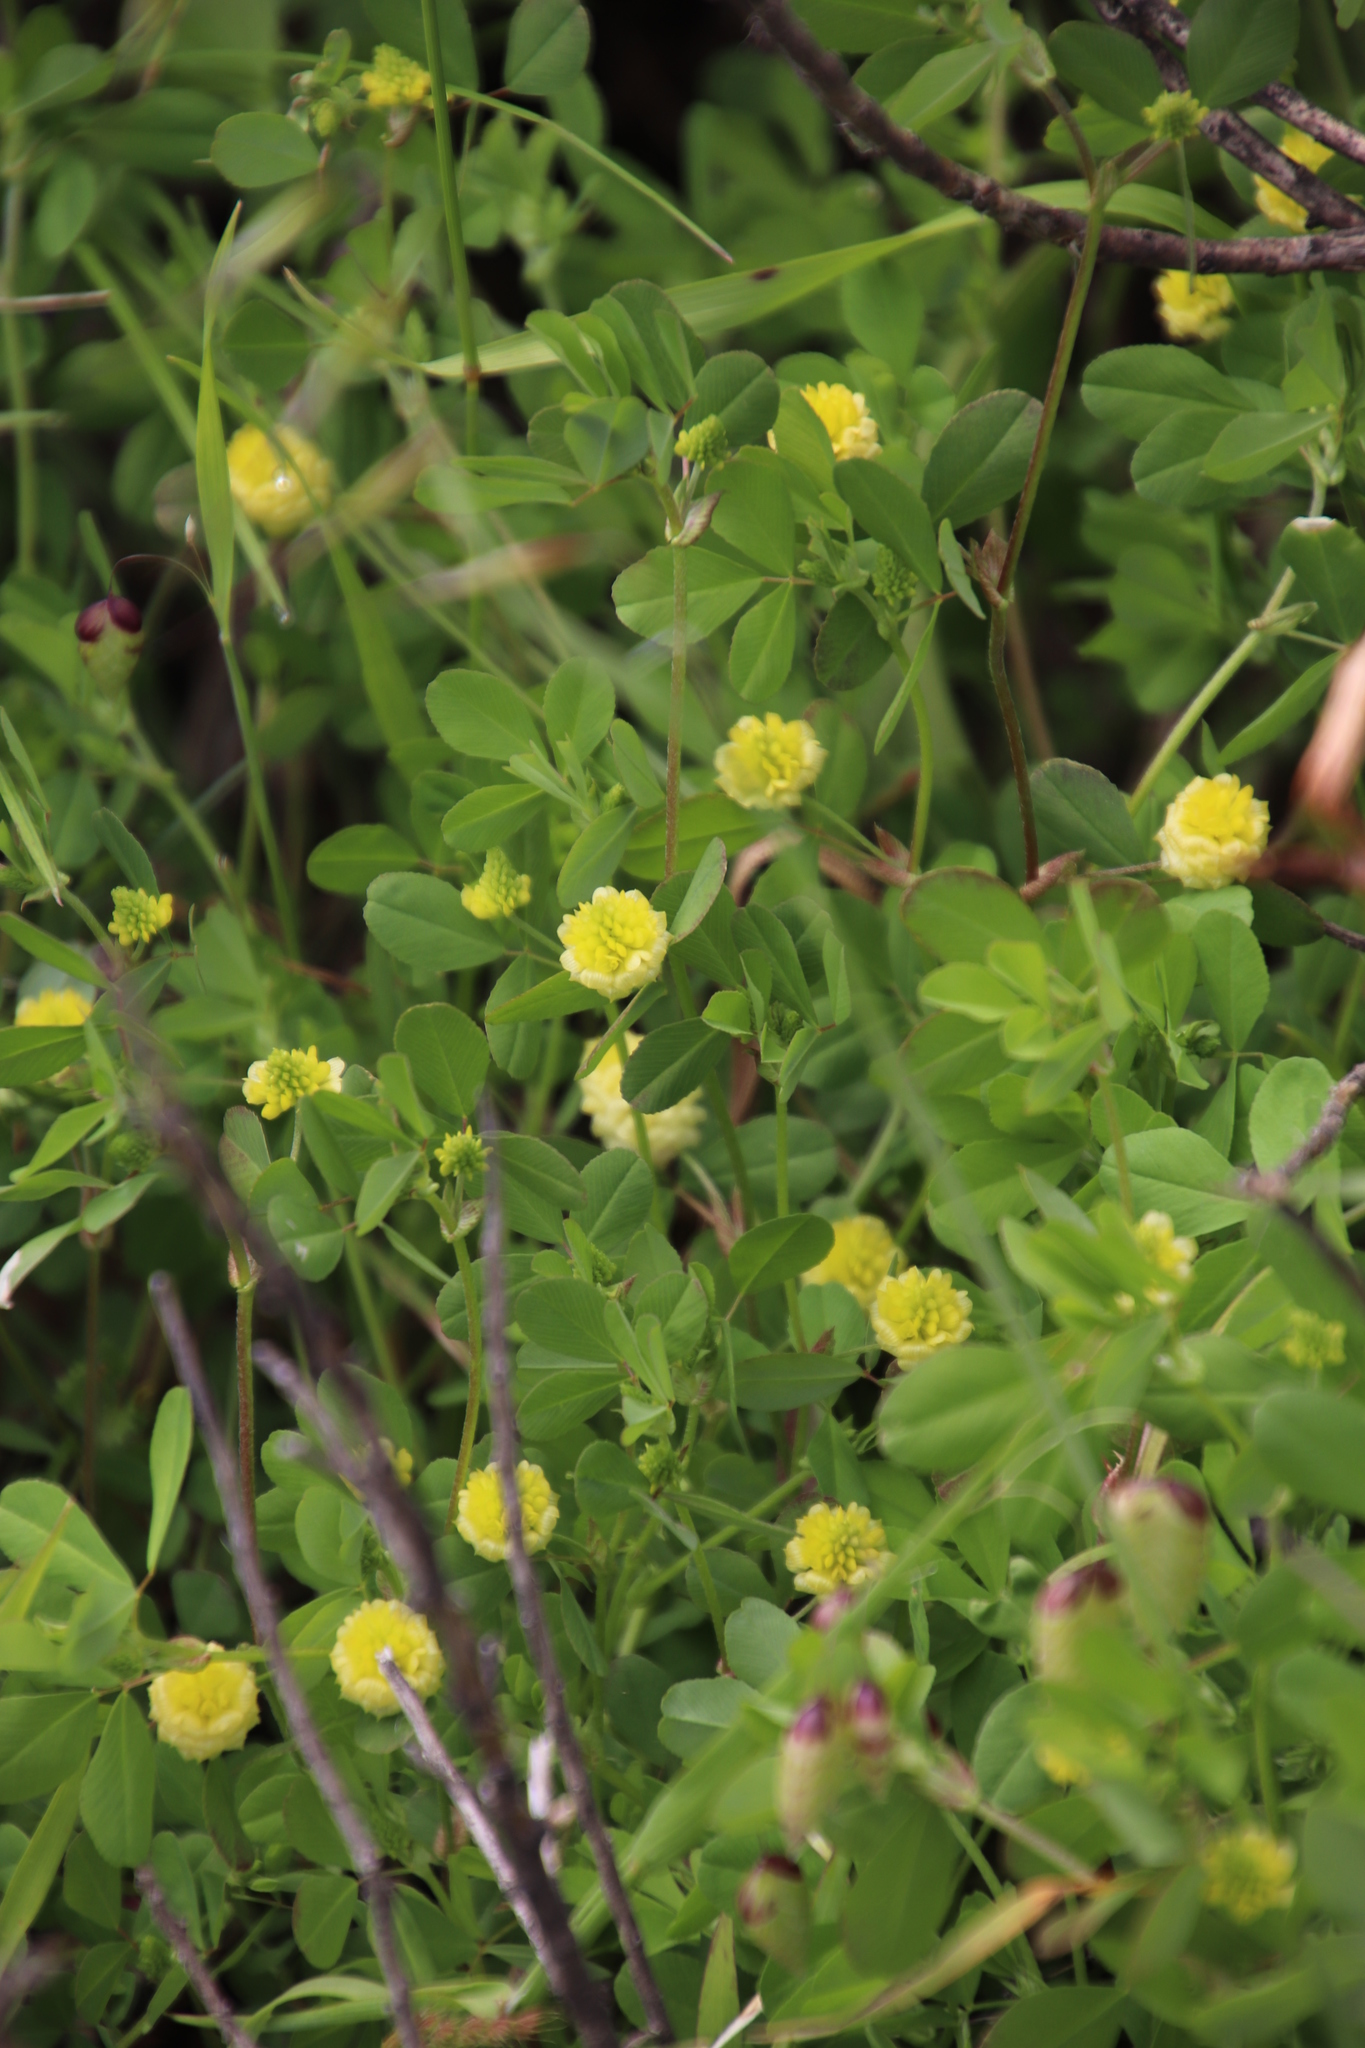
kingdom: Plantae
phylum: Tracheophyta
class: Magnoliopsida
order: Fabales
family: Fabaceae
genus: Trifolium
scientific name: Trifolium campestre
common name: Field clover
